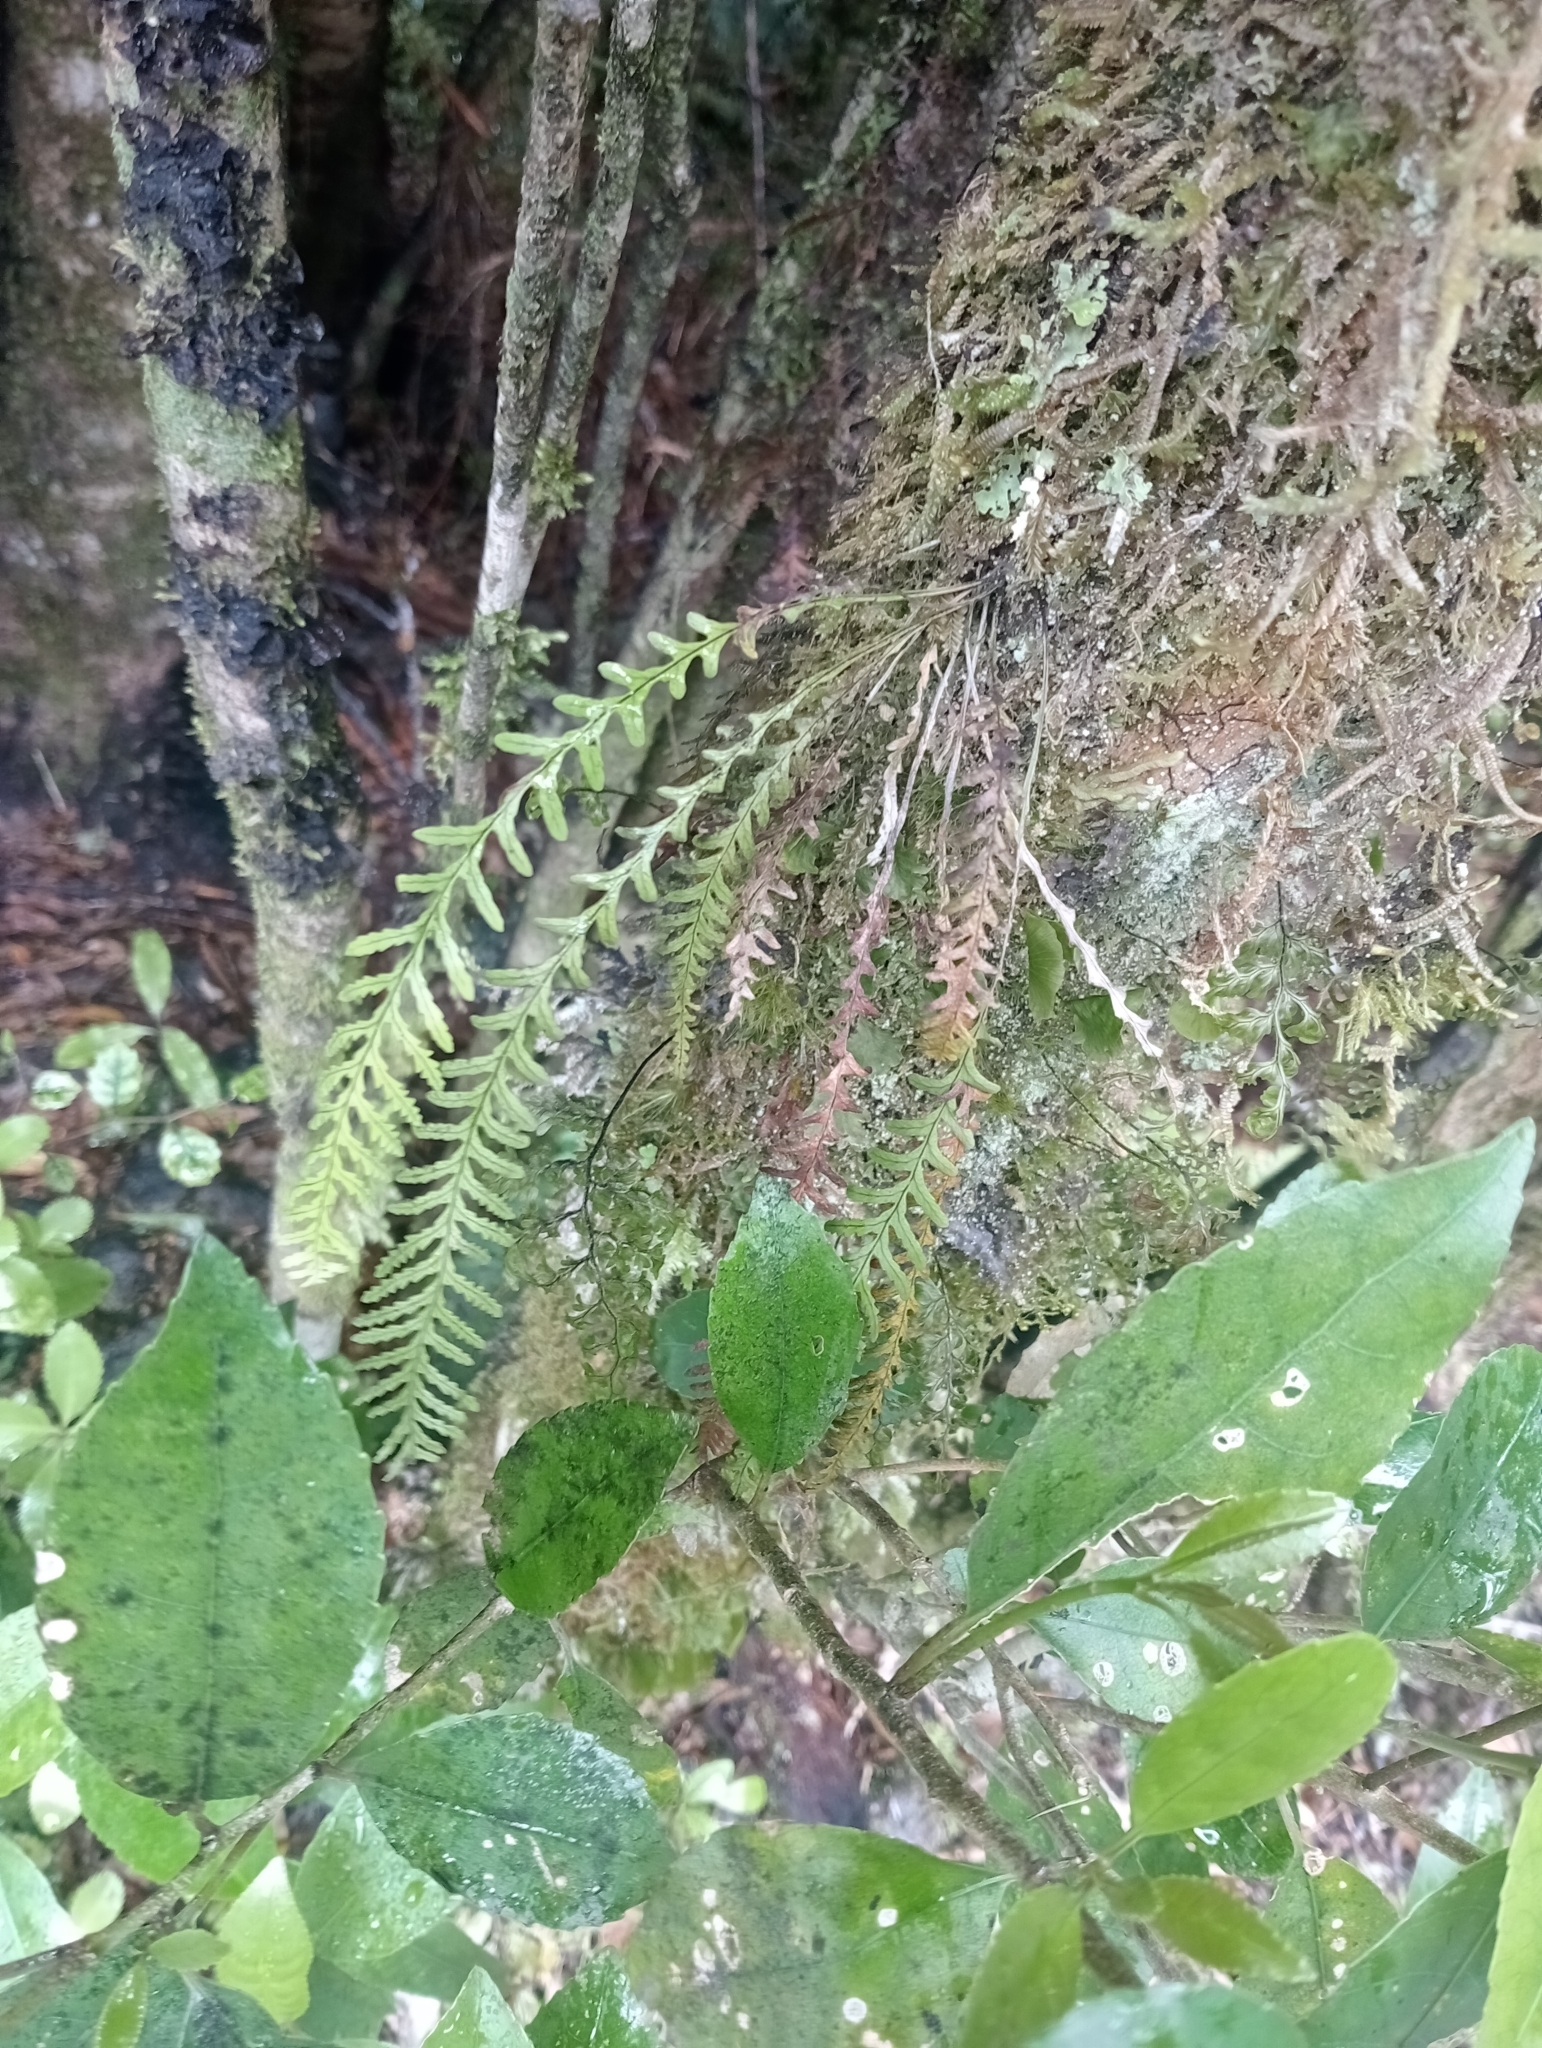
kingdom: Plantae
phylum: Tracheophyta
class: Polypodiopsida
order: Polypodiales
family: Polypodiaceae
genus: Notogrammitis
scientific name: Notogrammitis heterophylla
